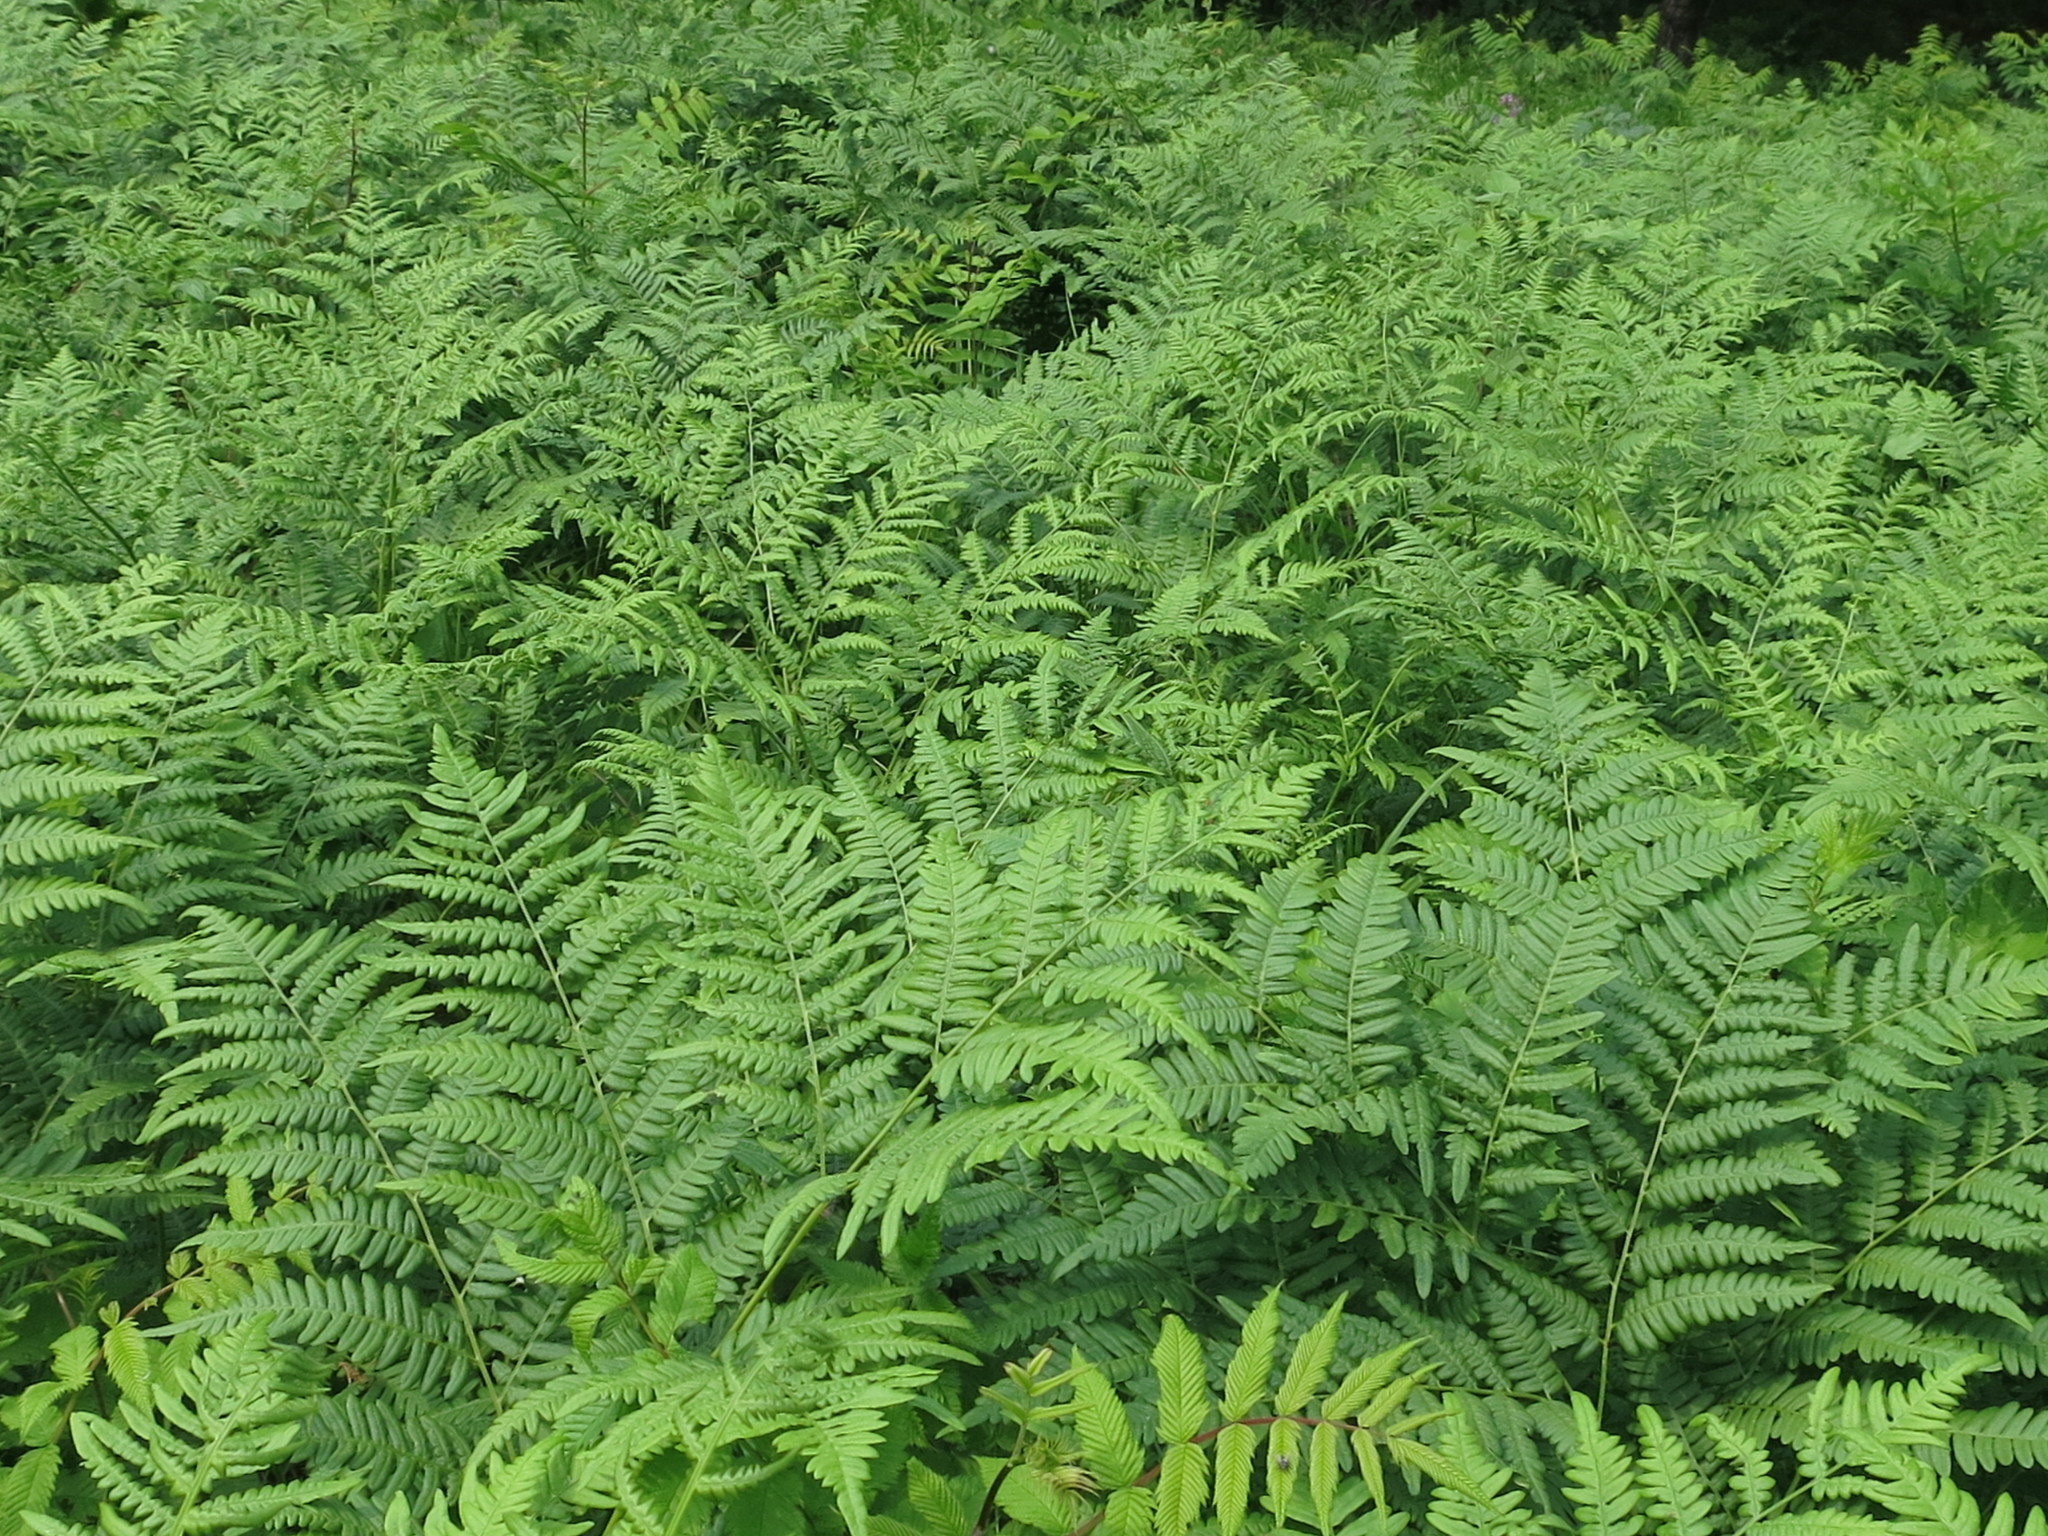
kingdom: Plantae
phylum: Tracheophyta
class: Polypodiopsida
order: Polypodiales
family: Dennstaedtiaceae
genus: Pteridium
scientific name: Pteridium aquilinum
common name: Bracken
